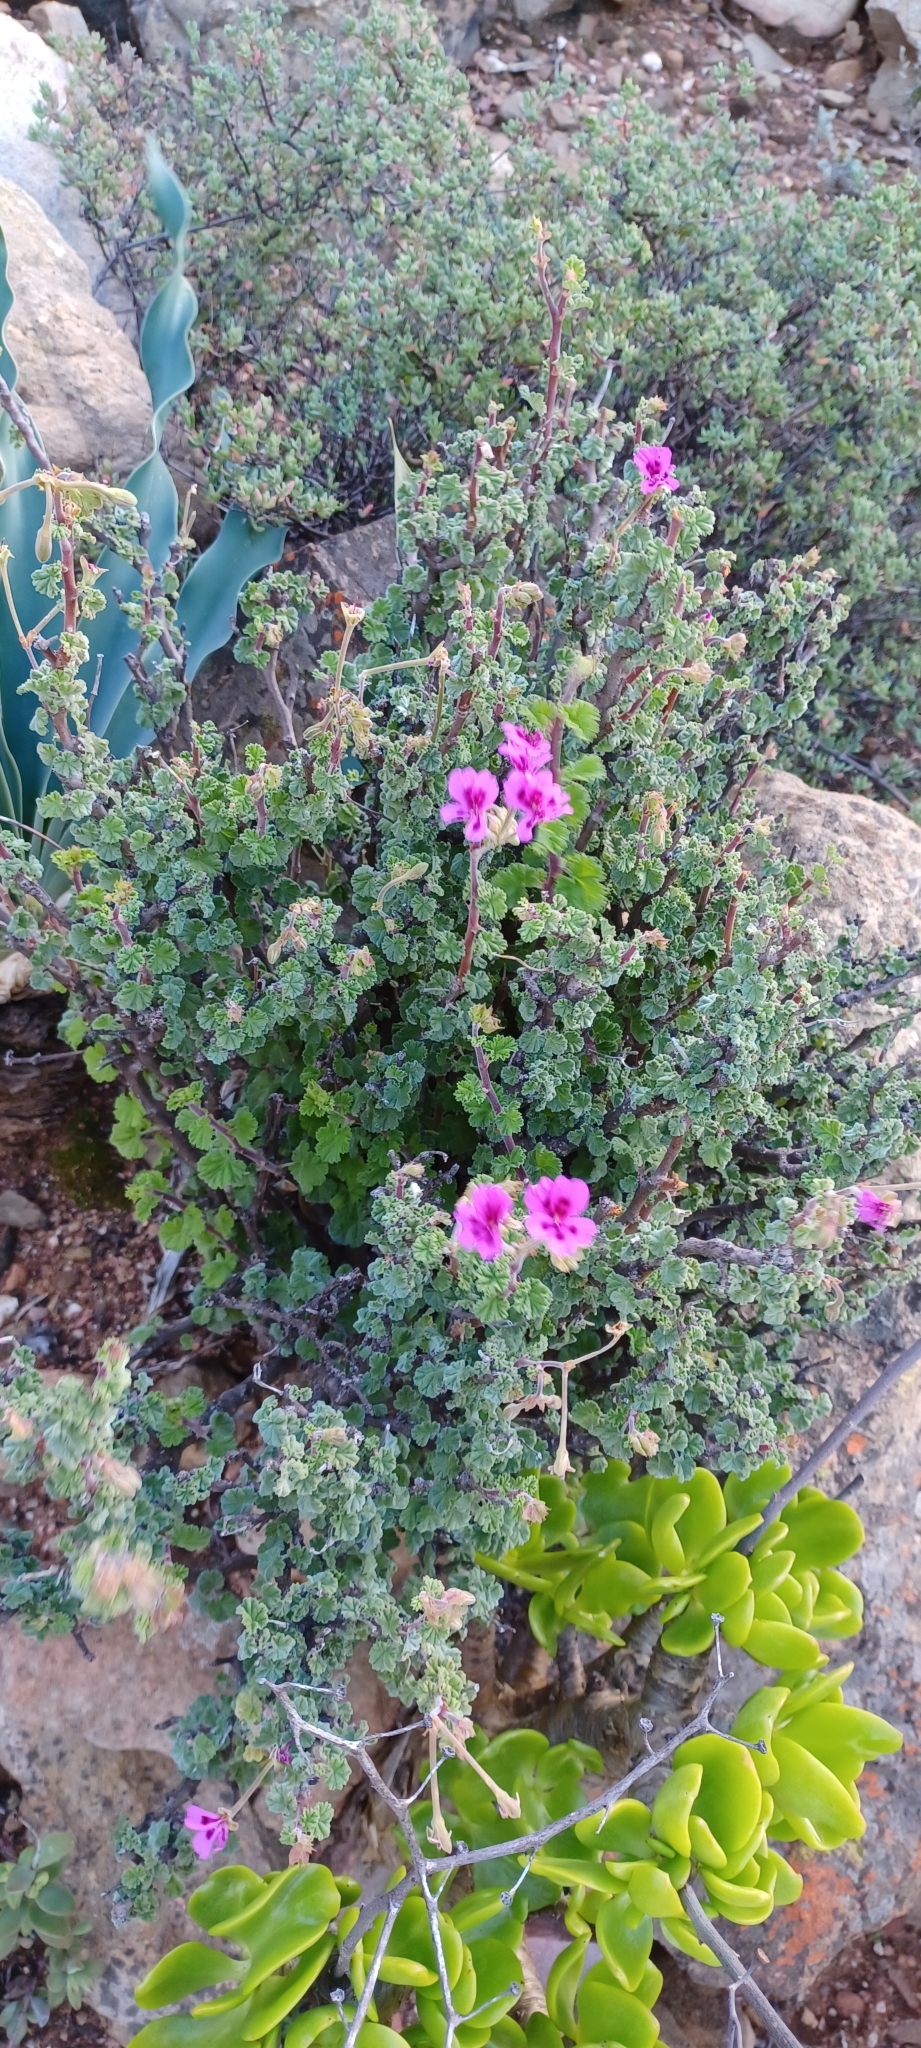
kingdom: Plantae
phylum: Tracheophyta
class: Magnoliopsida
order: Geraniales
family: Geraniaceae
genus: Pelargonium
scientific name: Pelargonium magenteum
